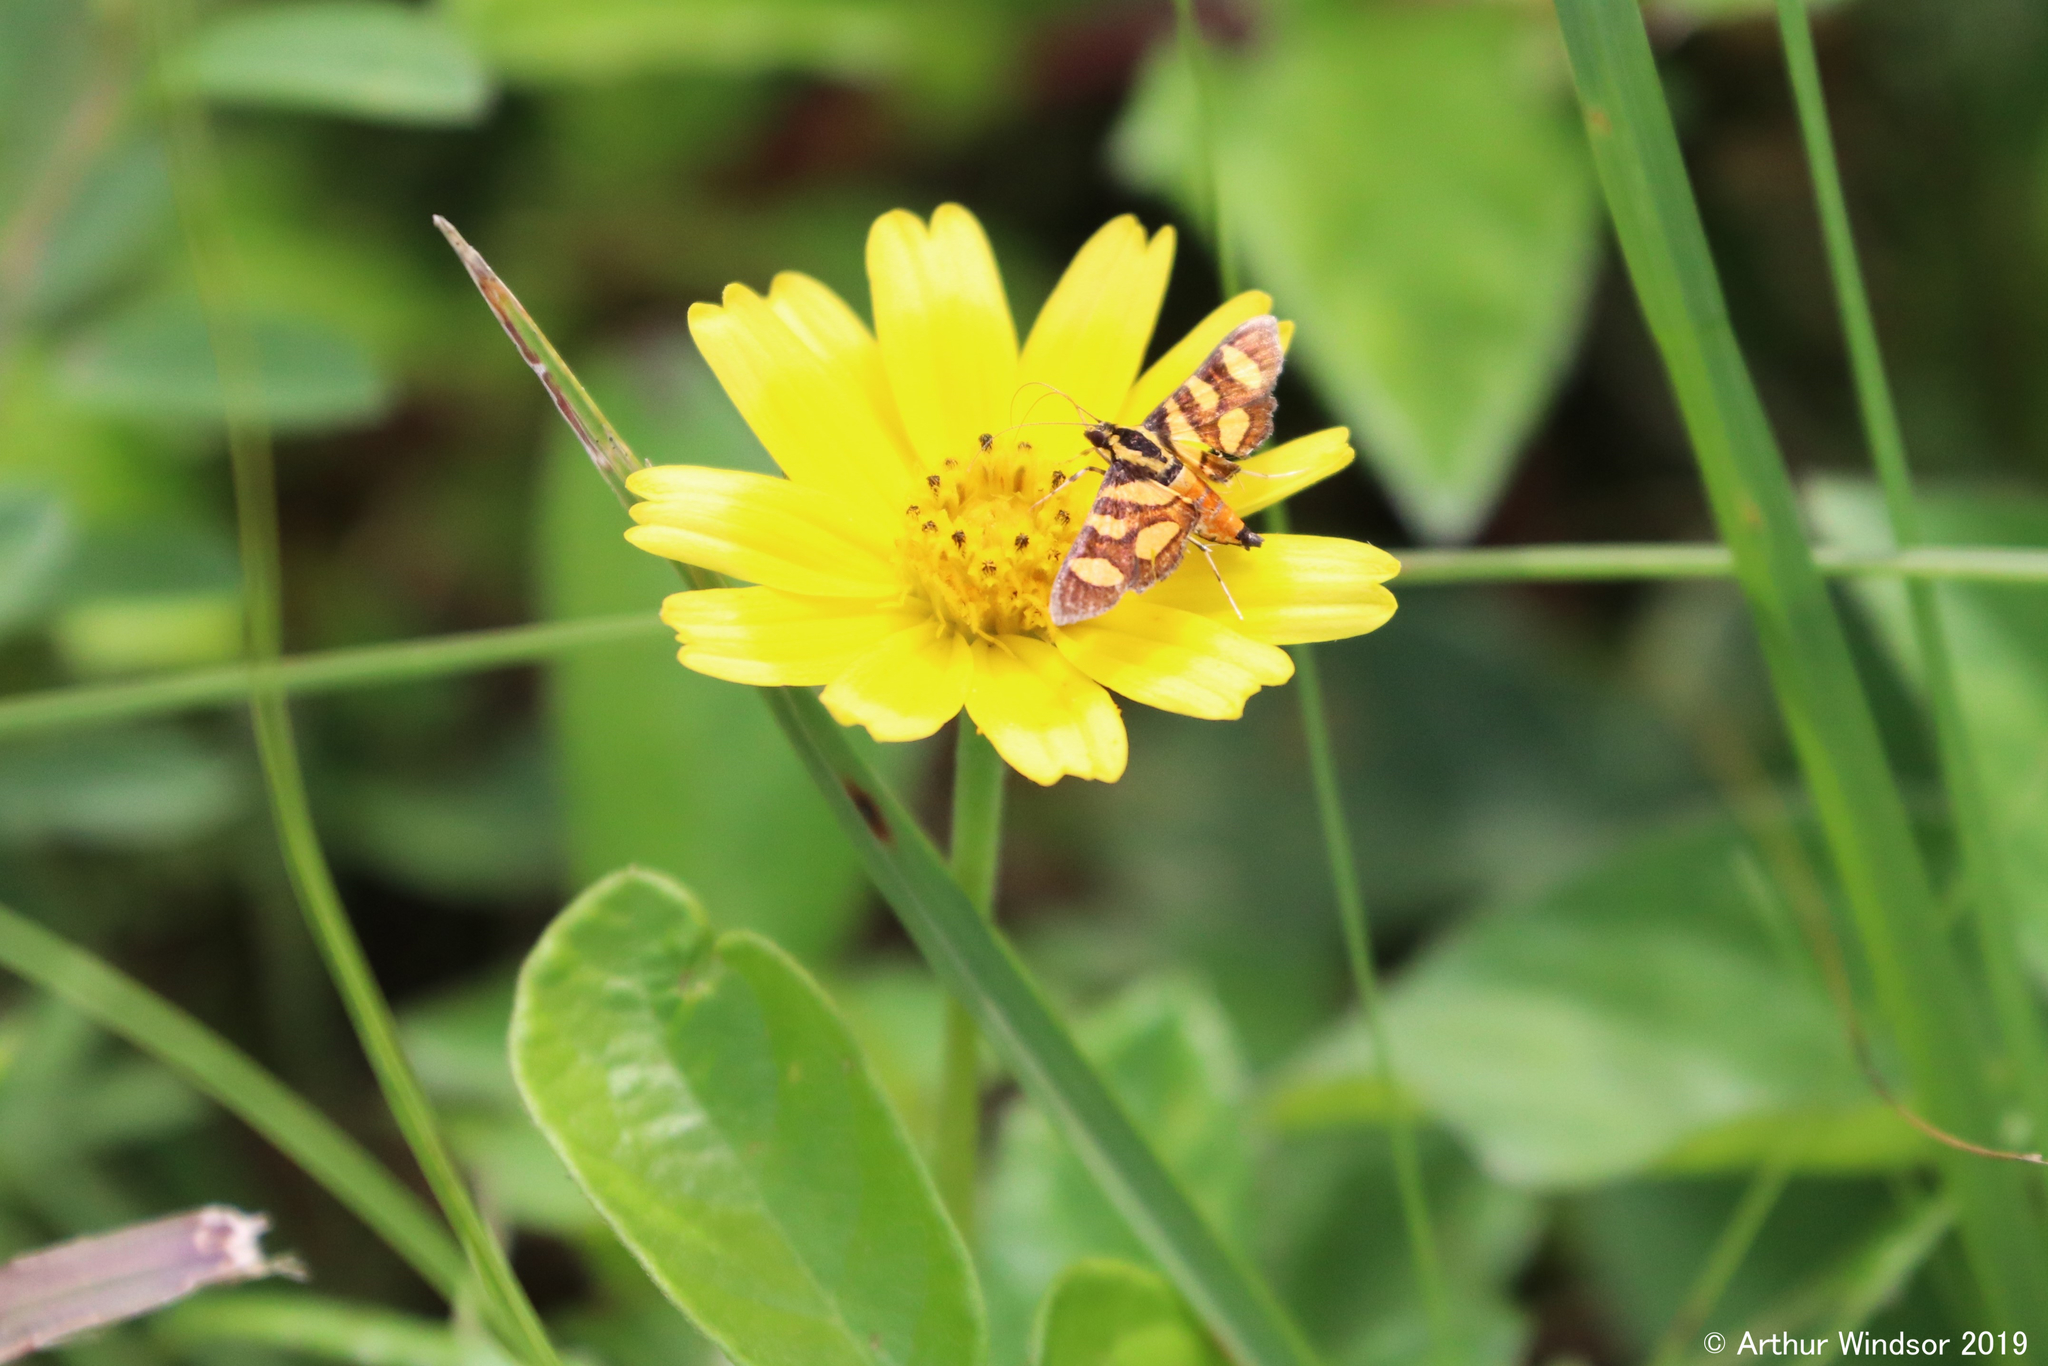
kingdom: Animalia
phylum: Arthropoda
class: Insecta
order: Lepidoptera
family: Crambidae
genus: Syngamia
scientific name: Syngamia florella
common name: Orange-spotted flower moth
